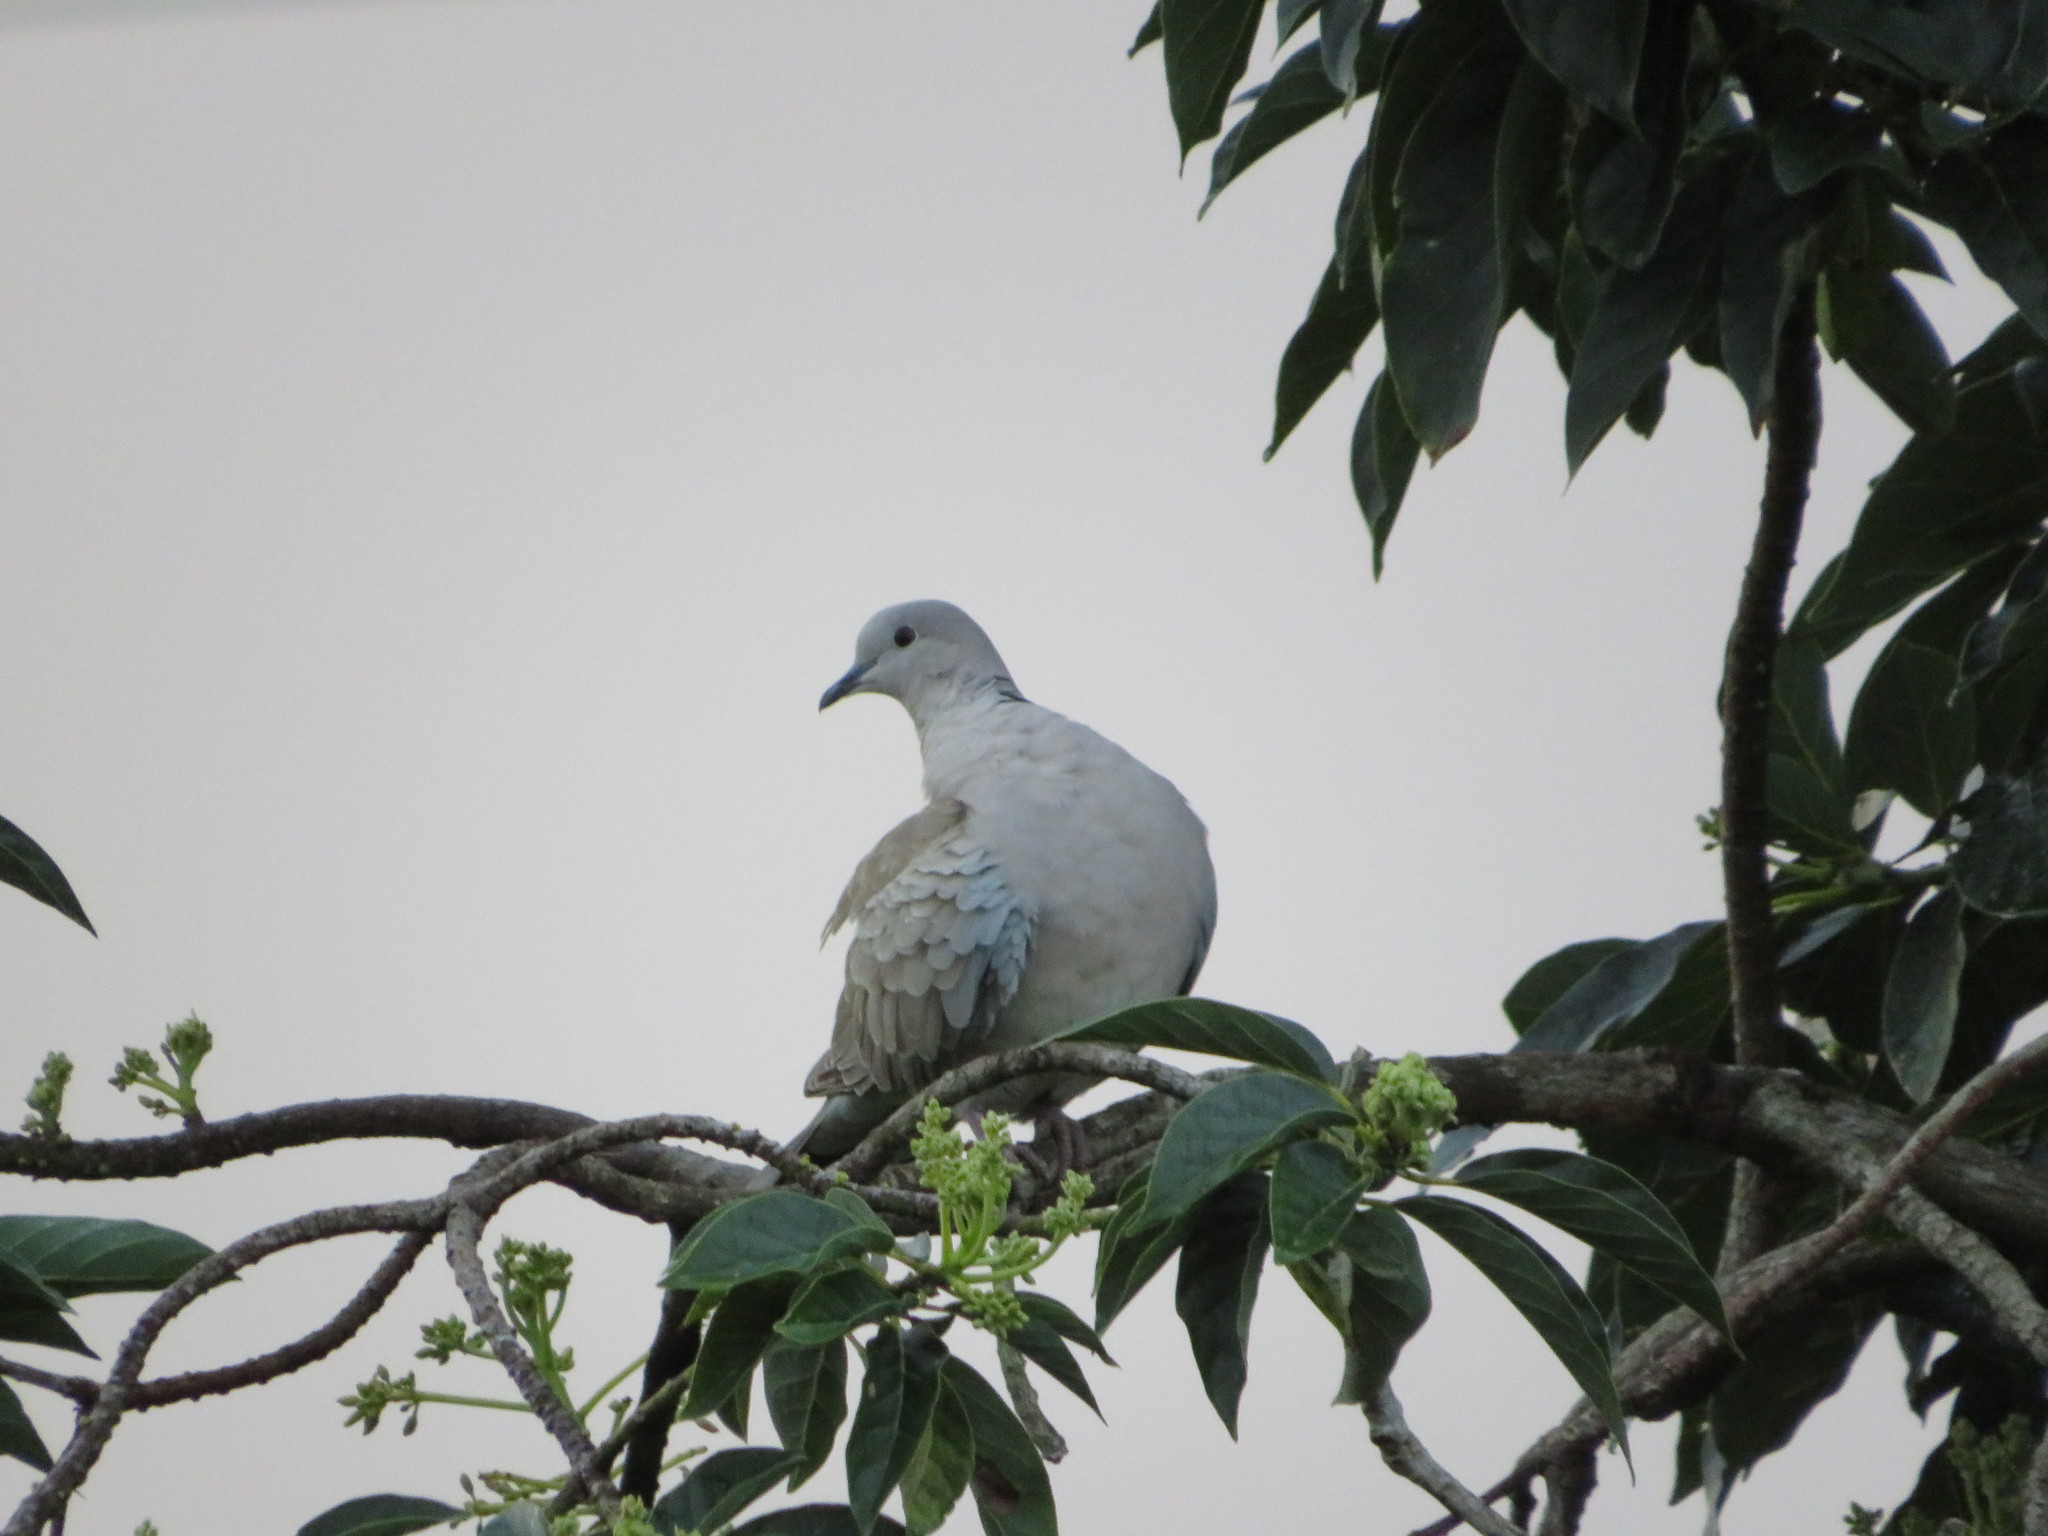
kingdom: Animalia
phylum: Chordata
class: Aves
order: Columbiformes
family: Columbidae
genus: Streptopelia
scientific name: Streptopelia decaocto
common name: Eurasian collared dove
